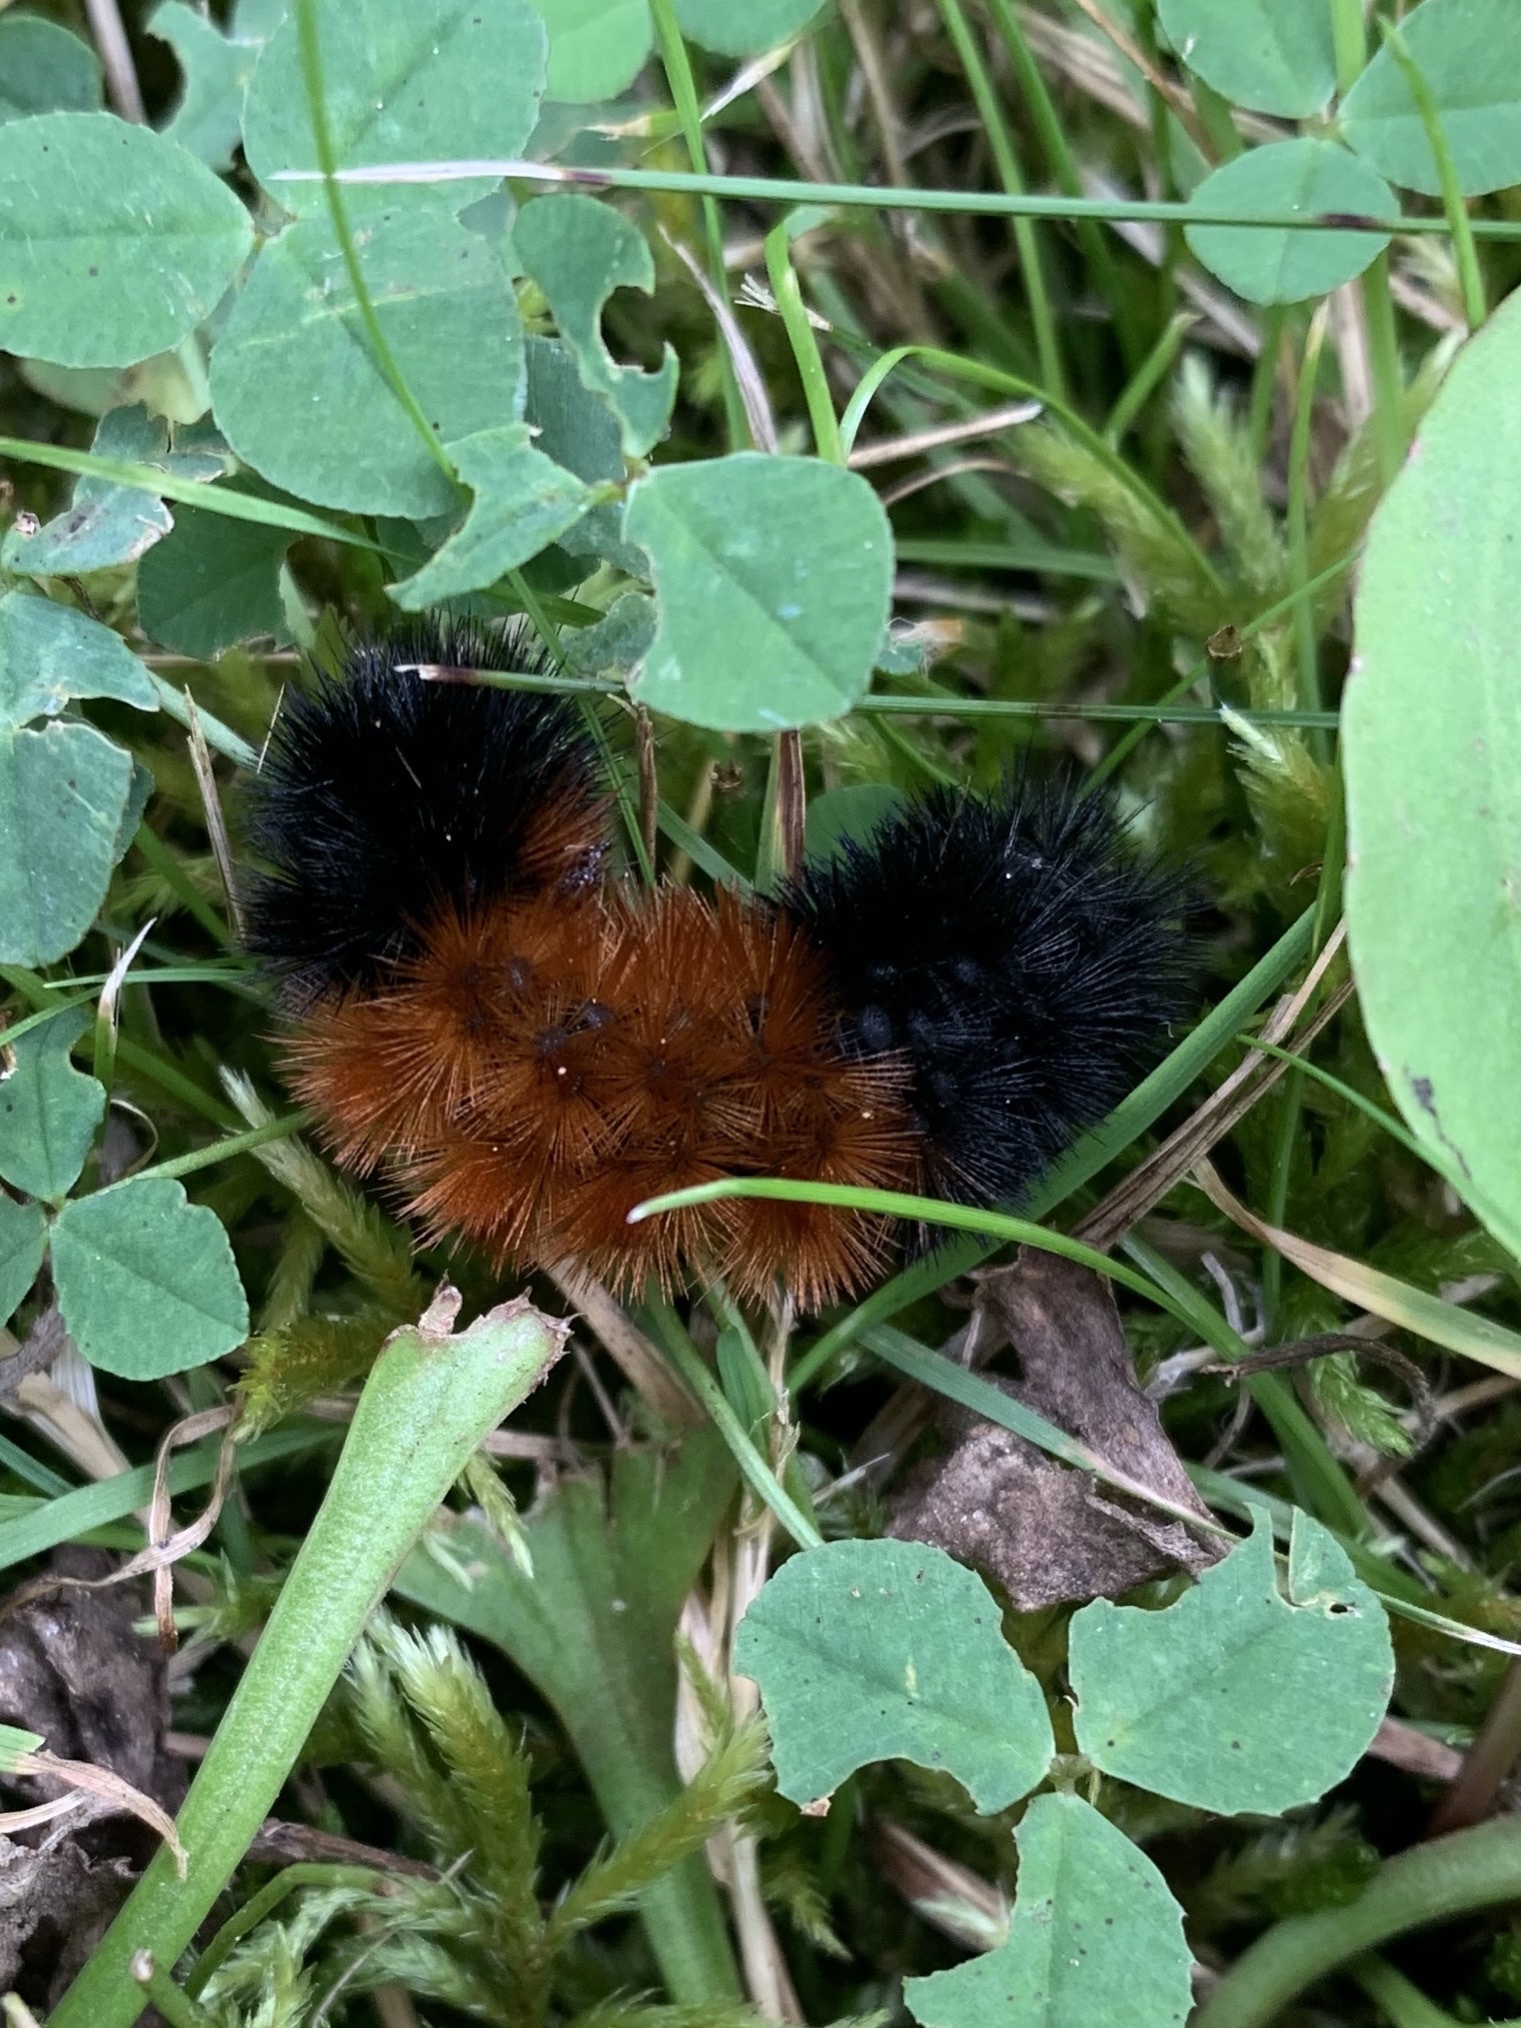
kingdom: Animalia
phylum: Arthropoda
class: Insecta
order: Lepidoptera
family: Erebidae
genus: Pyrrharctia
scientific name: Pyrrharctia isabella
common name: Isabella tiger moth
